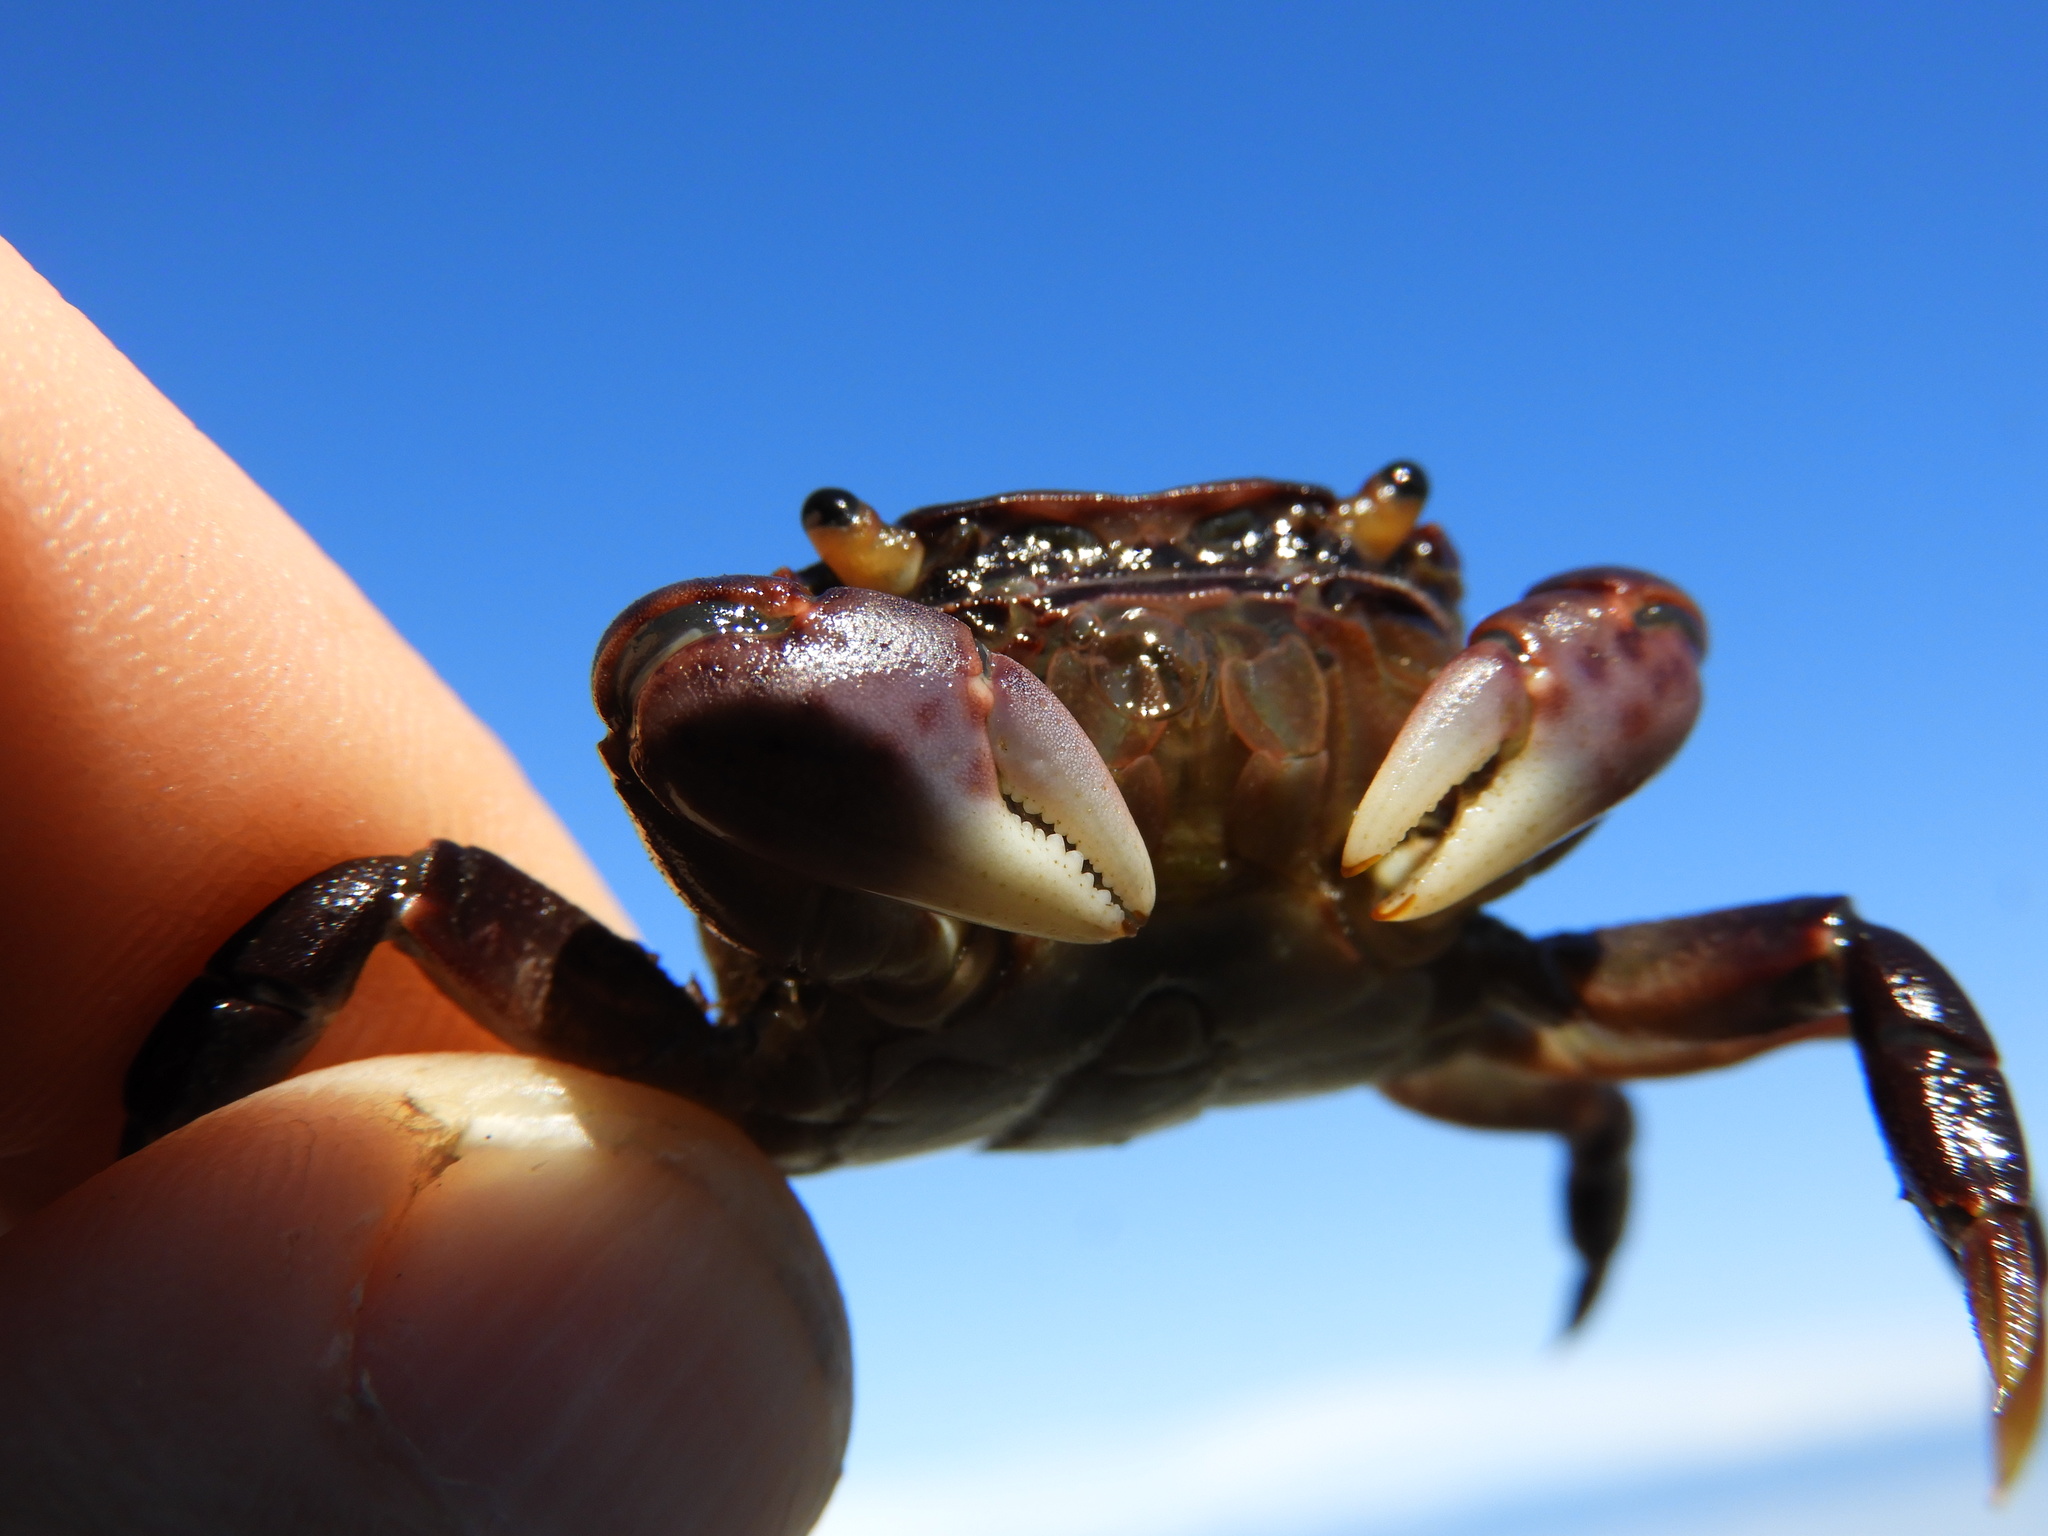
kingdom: Animalia
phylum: Arthropoda
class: Malacostraca
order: Decapoda
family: Varunidae
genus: Hemigrapsus
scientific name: Hemigrapsus nudus
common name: Purple shore crab
